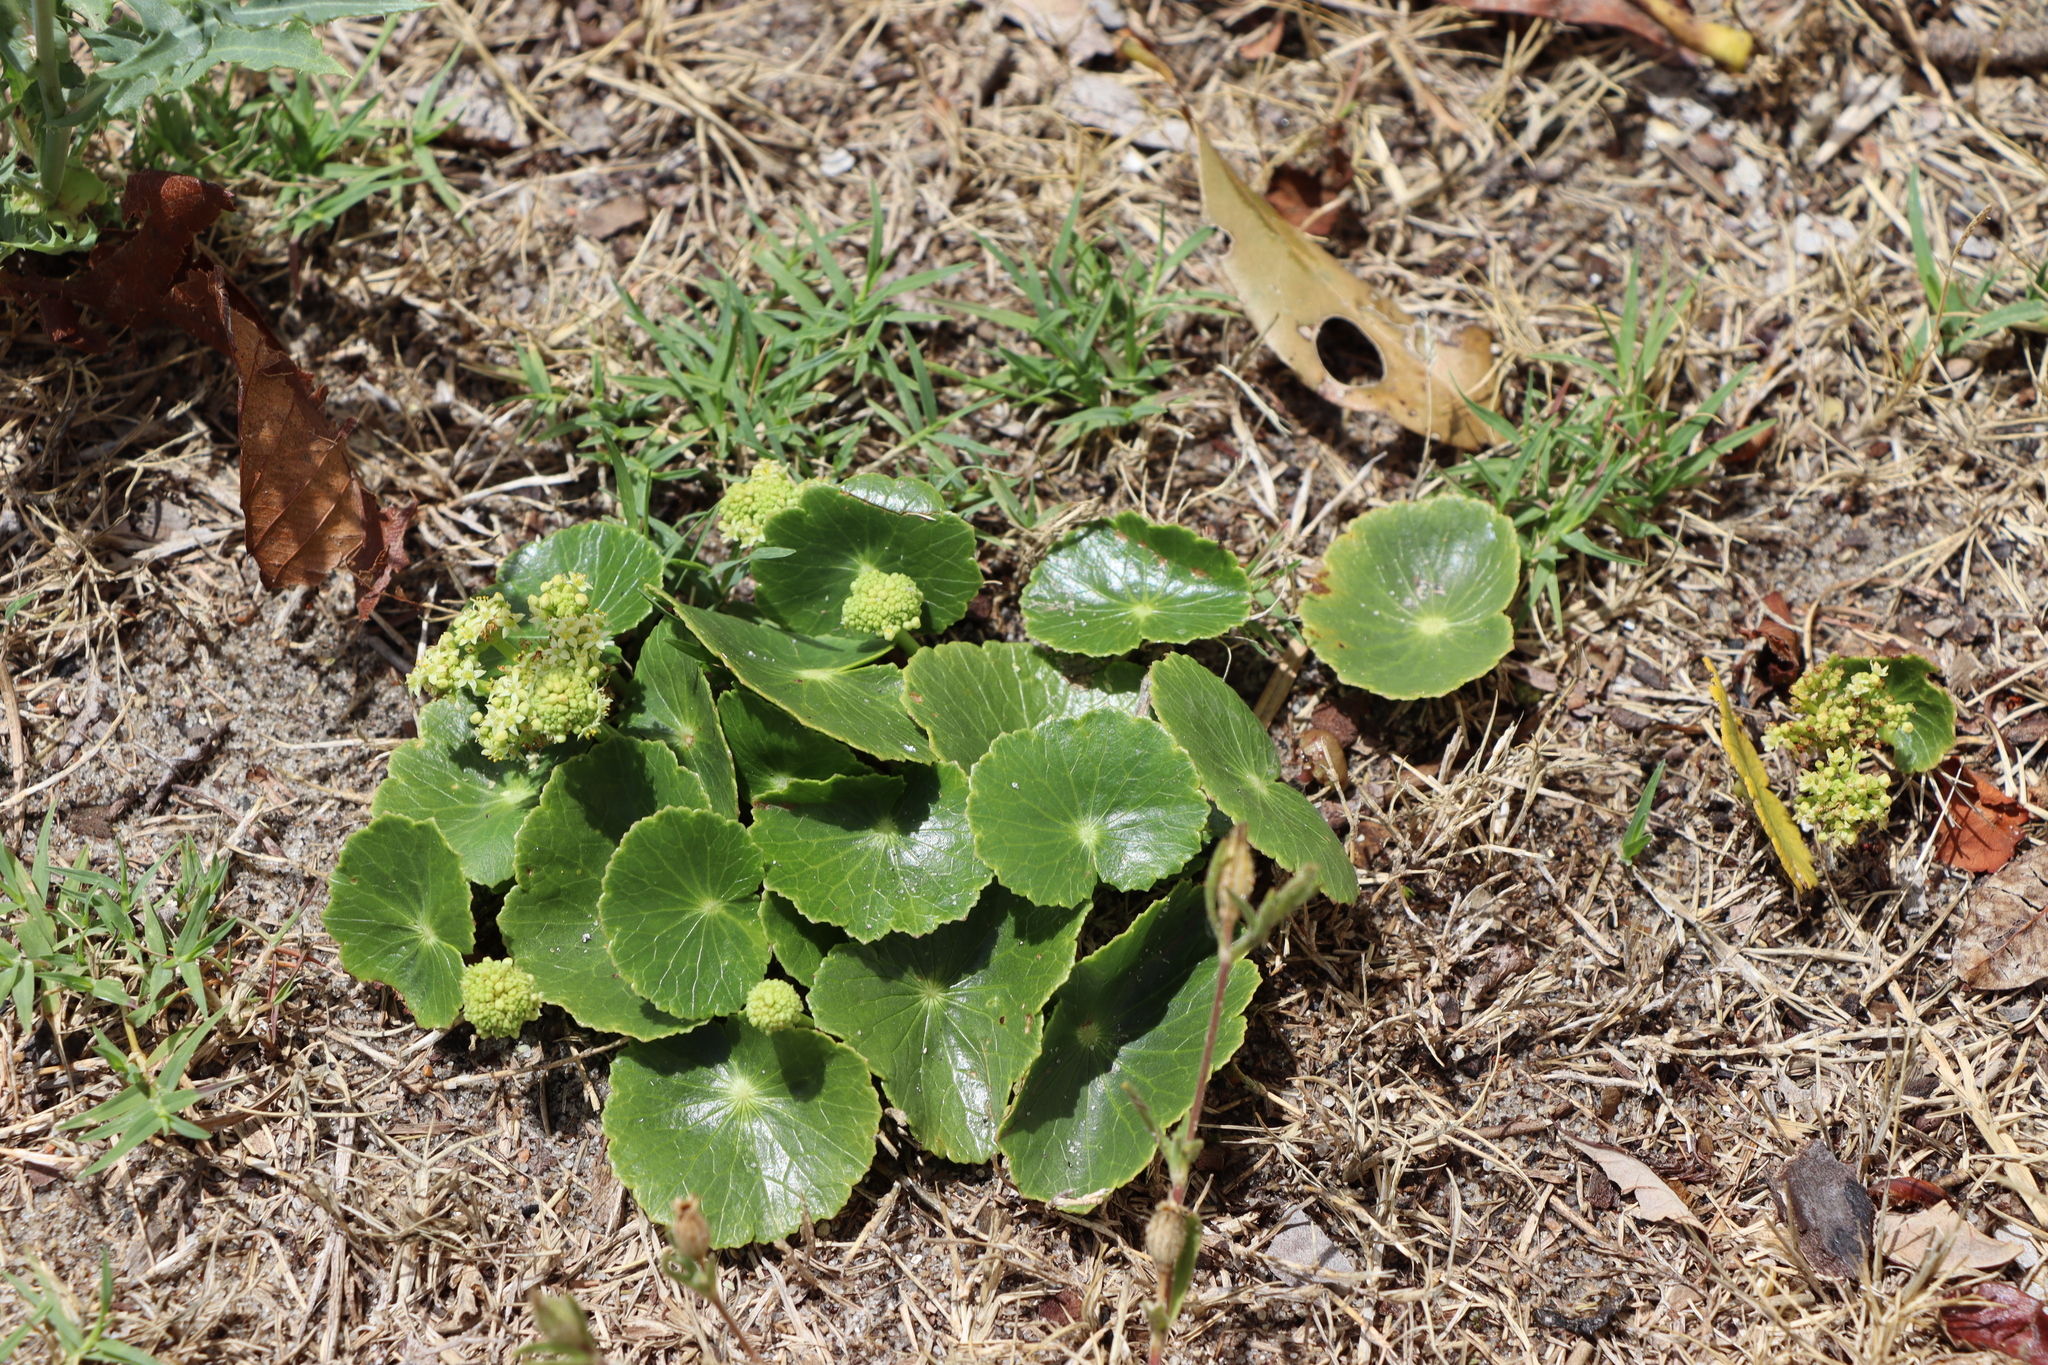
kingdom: Plantae
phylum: Tracheophyta
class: Magnoliopsida
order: Apiales
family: Araliaceae
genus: Hydrocotyle
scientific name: Hydrocotyle bonariensis
